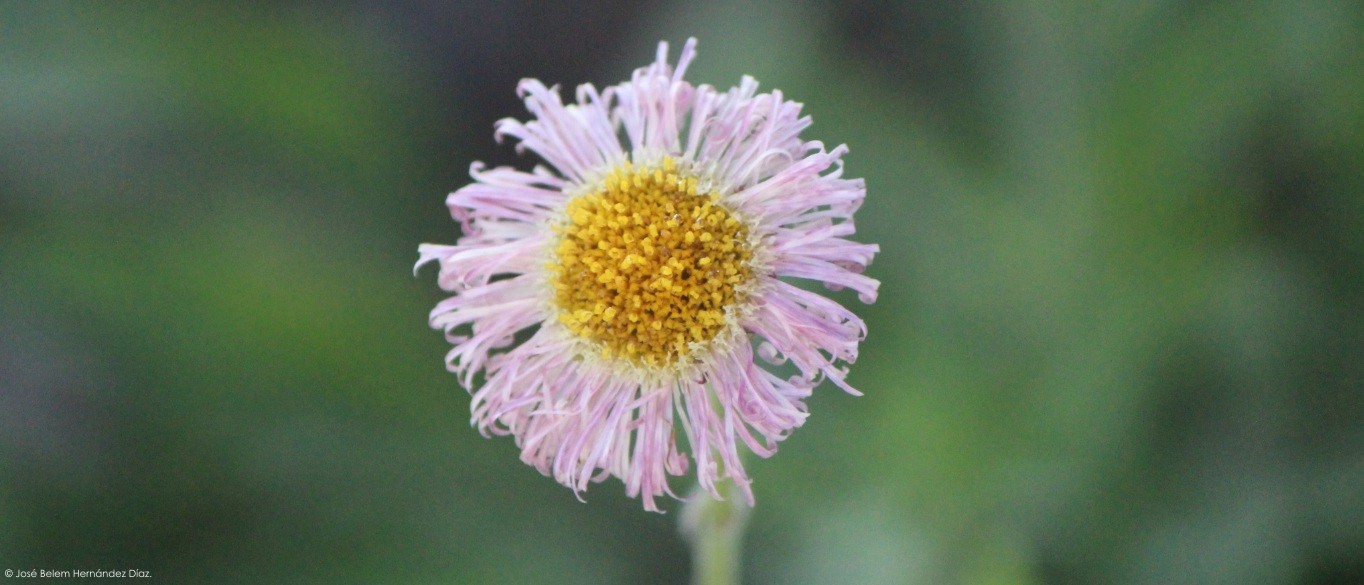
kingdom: Plantae
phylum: Tracheophyta
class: Magnoliopsida
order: Asterales
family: Asteraceae
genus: Erigeron
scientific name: Erigeron longipes
